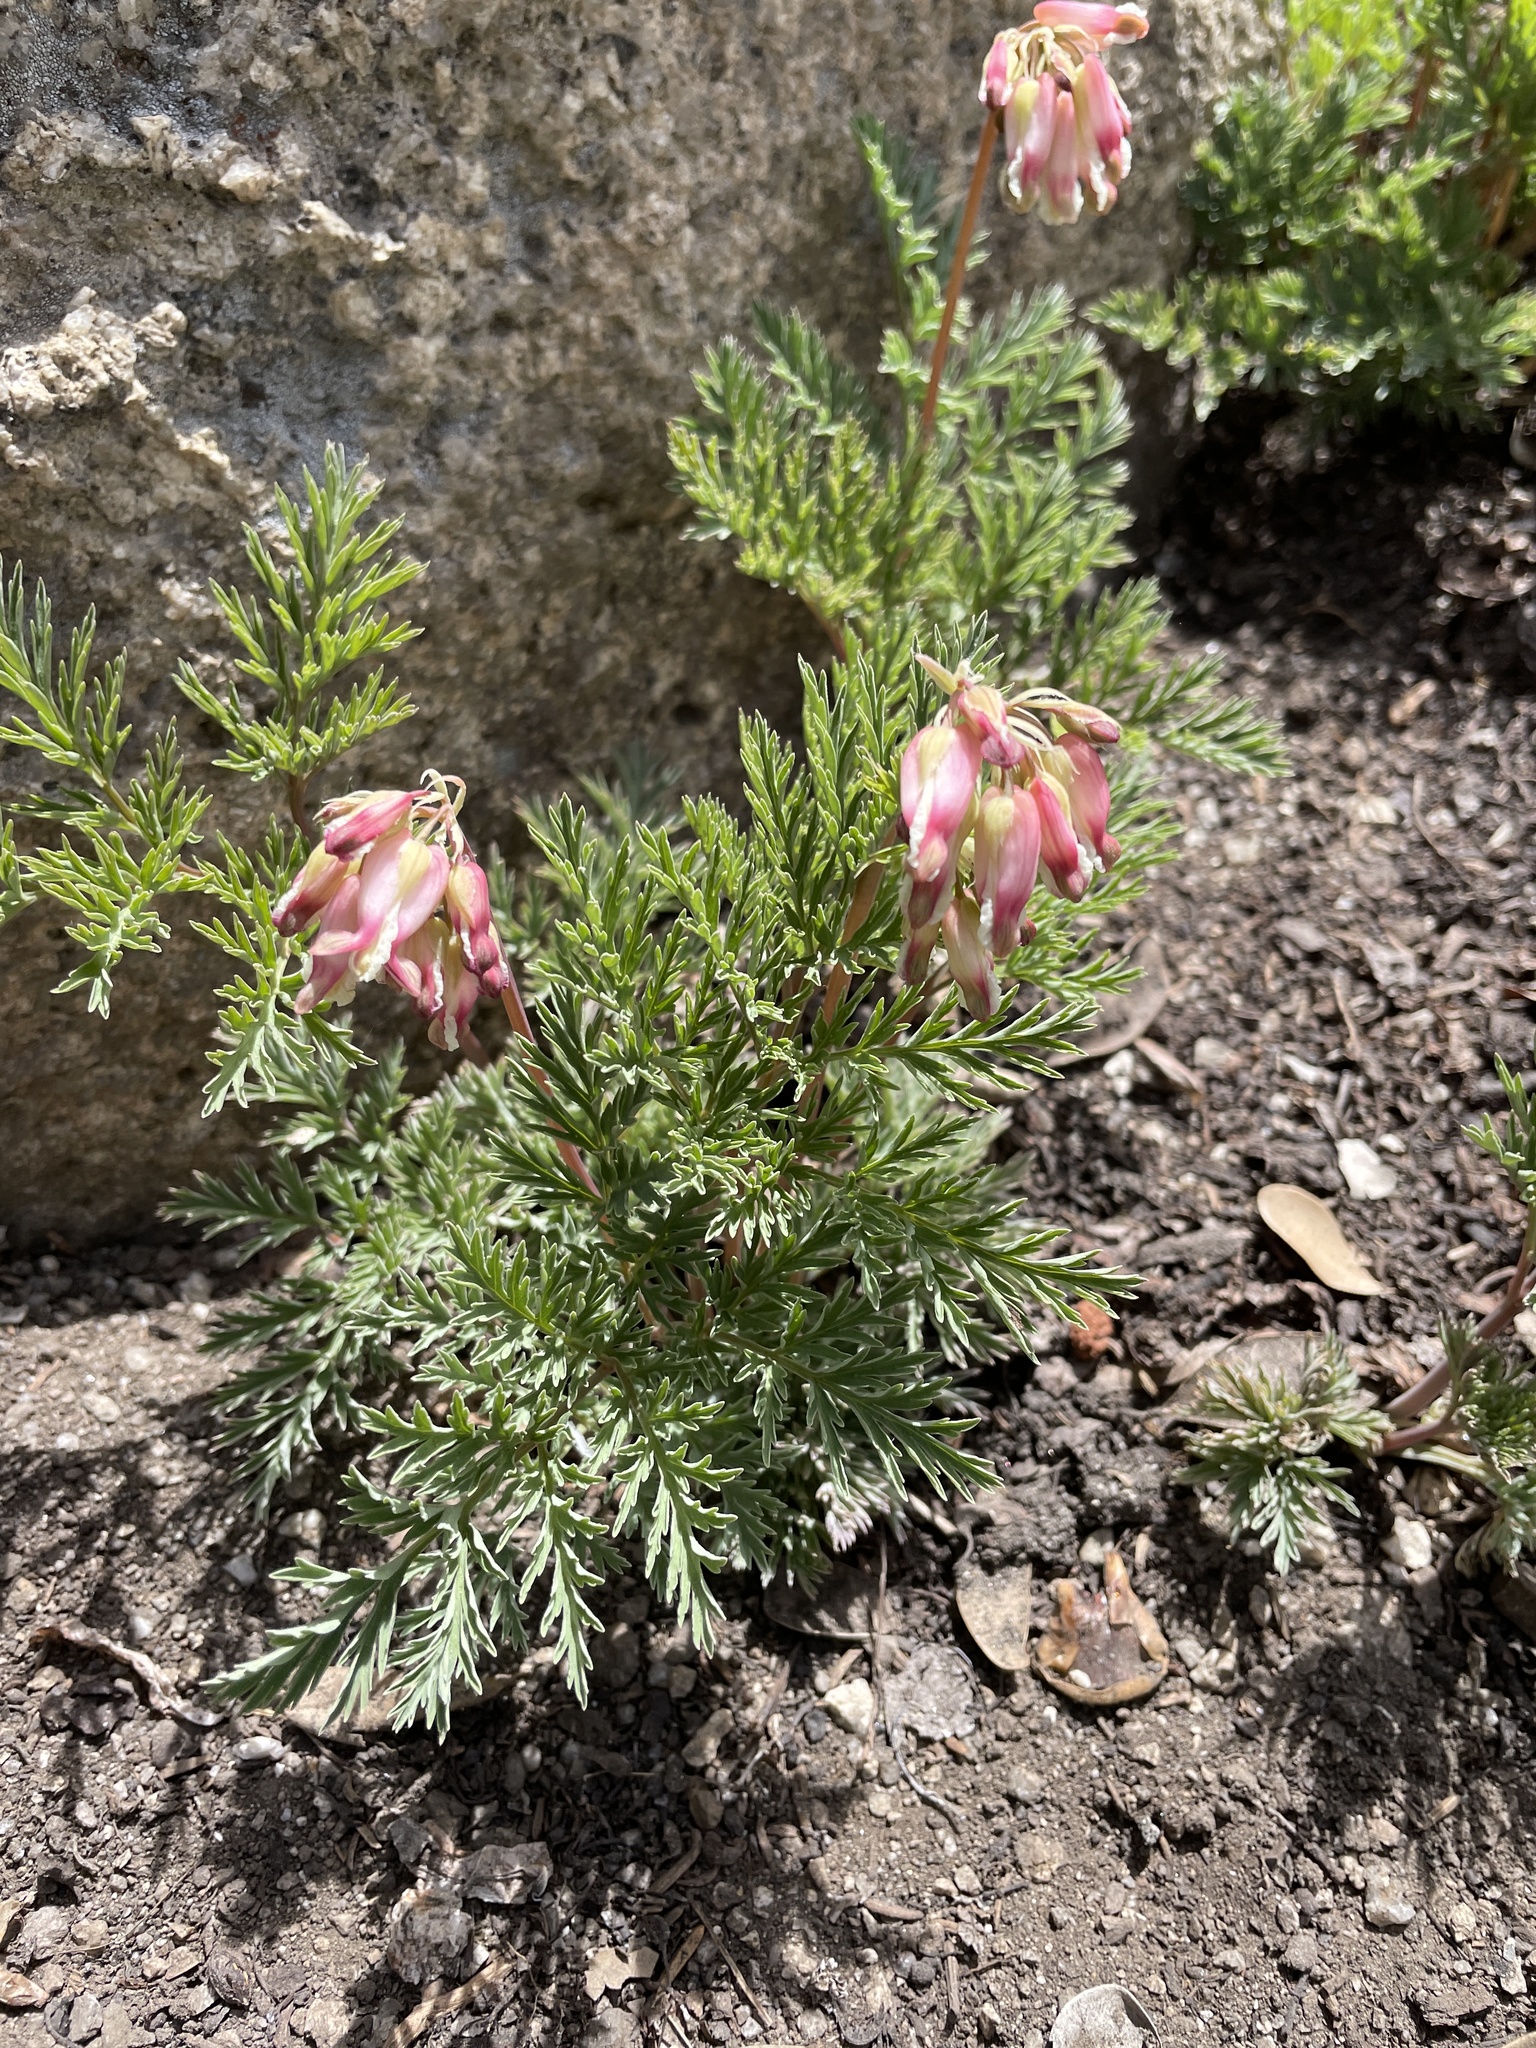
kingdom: Plantae
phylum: Tracheophyta
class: Magnoliopsida
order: Ranunculales
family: Papaveraceae
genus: Dicentra
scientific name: Dicentra formosa
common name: Bleeding-heart
